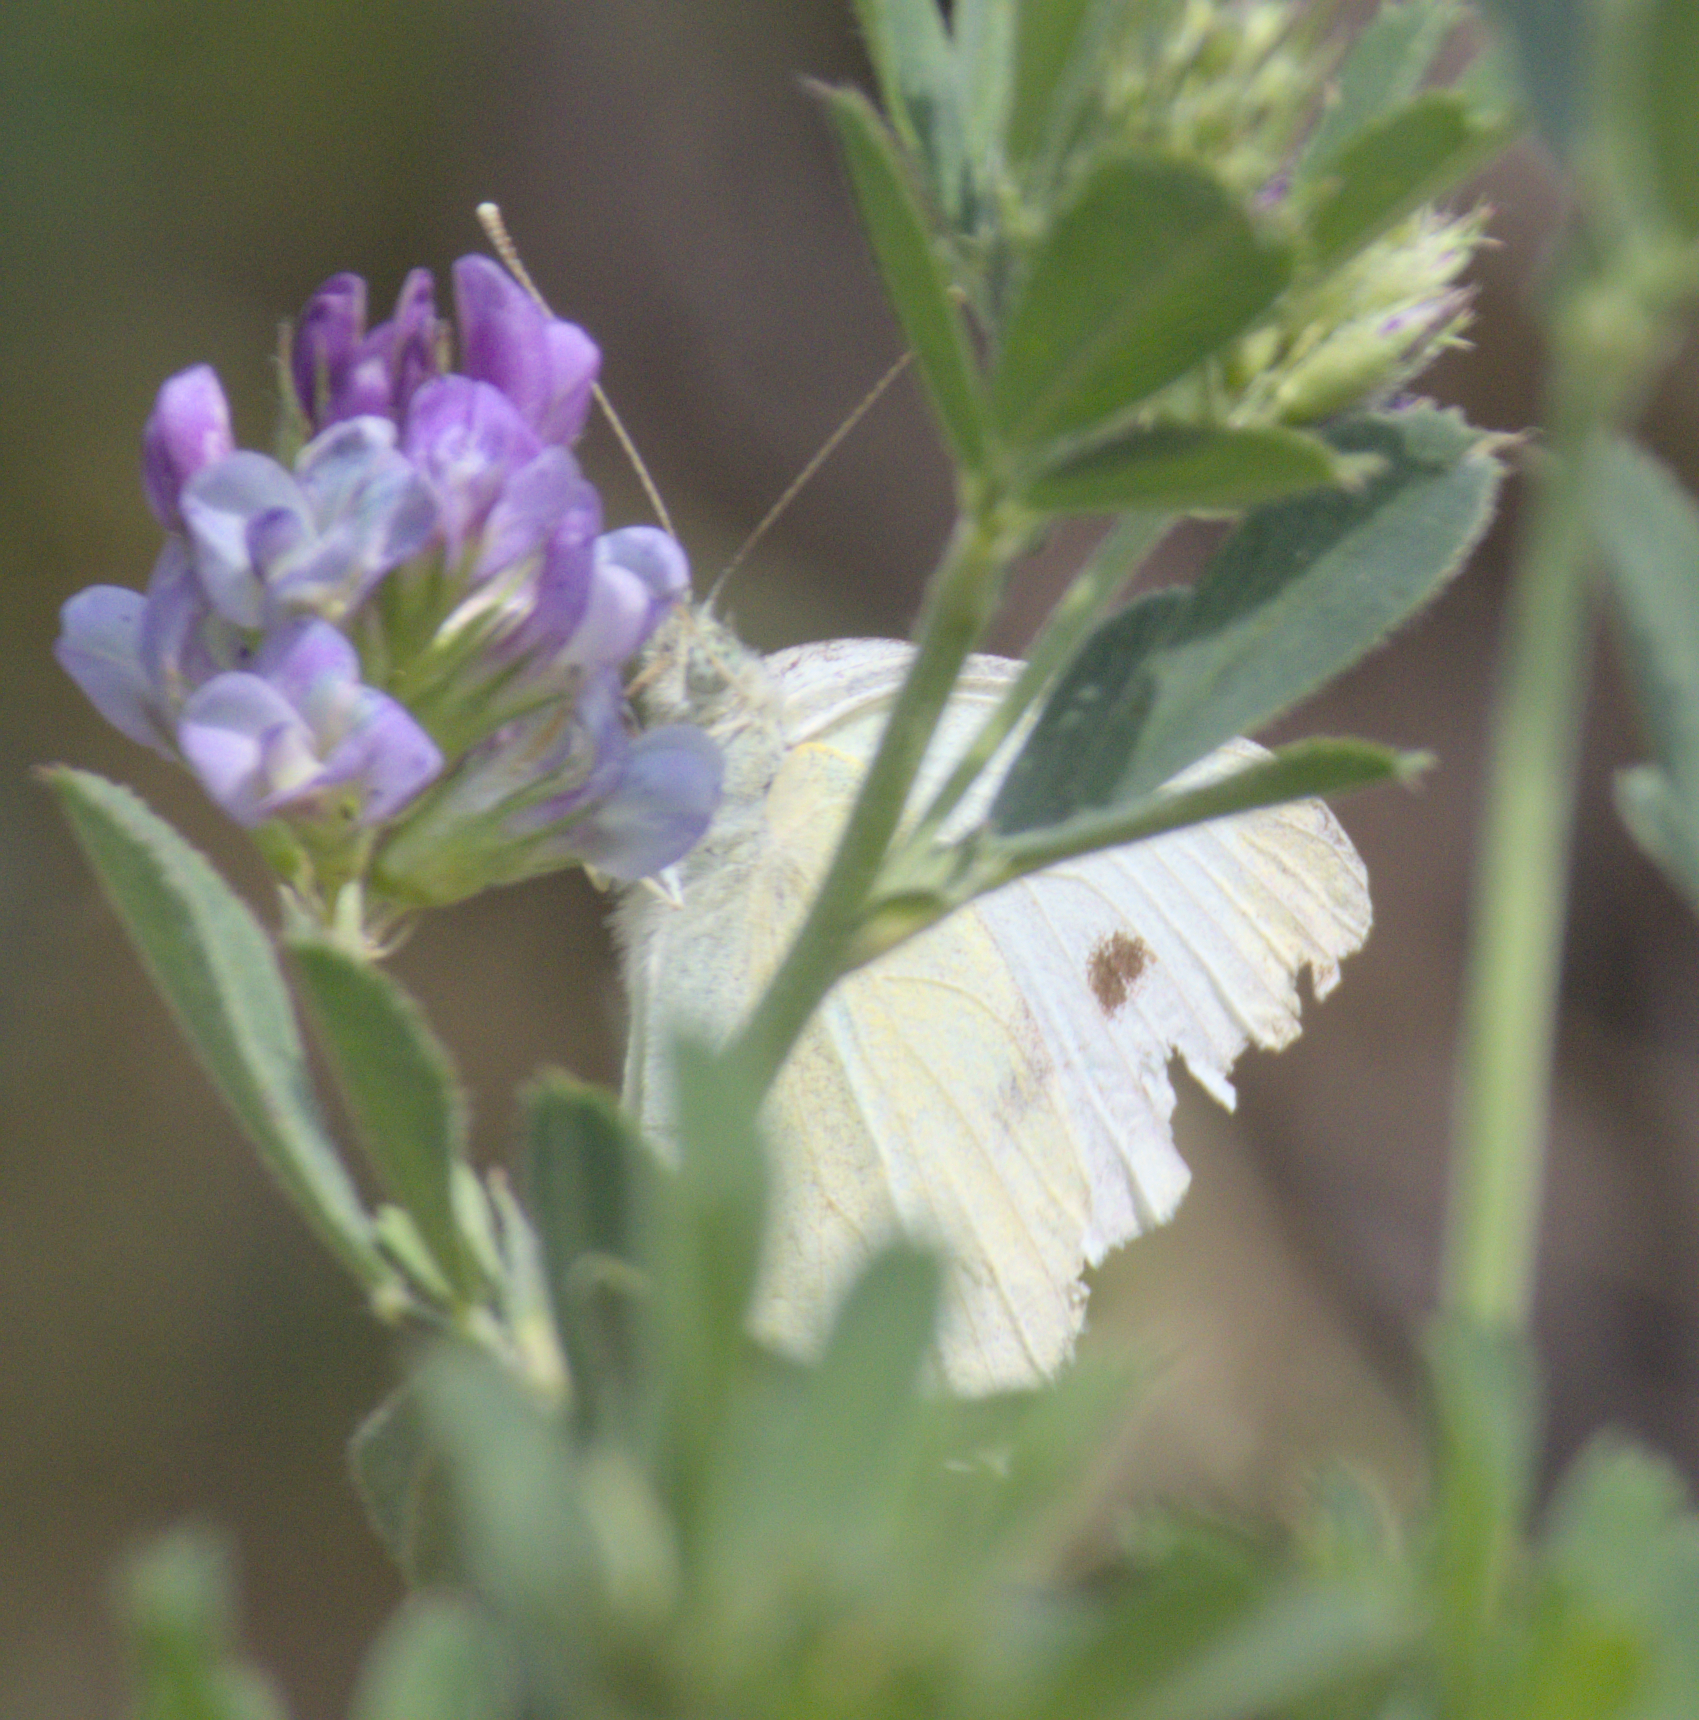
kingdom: Animalia
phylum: Arthropoda
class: Insecta
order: Lepidoptera
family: Pieridae
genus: Pieris
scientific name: Pieris rapae
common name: Small white
